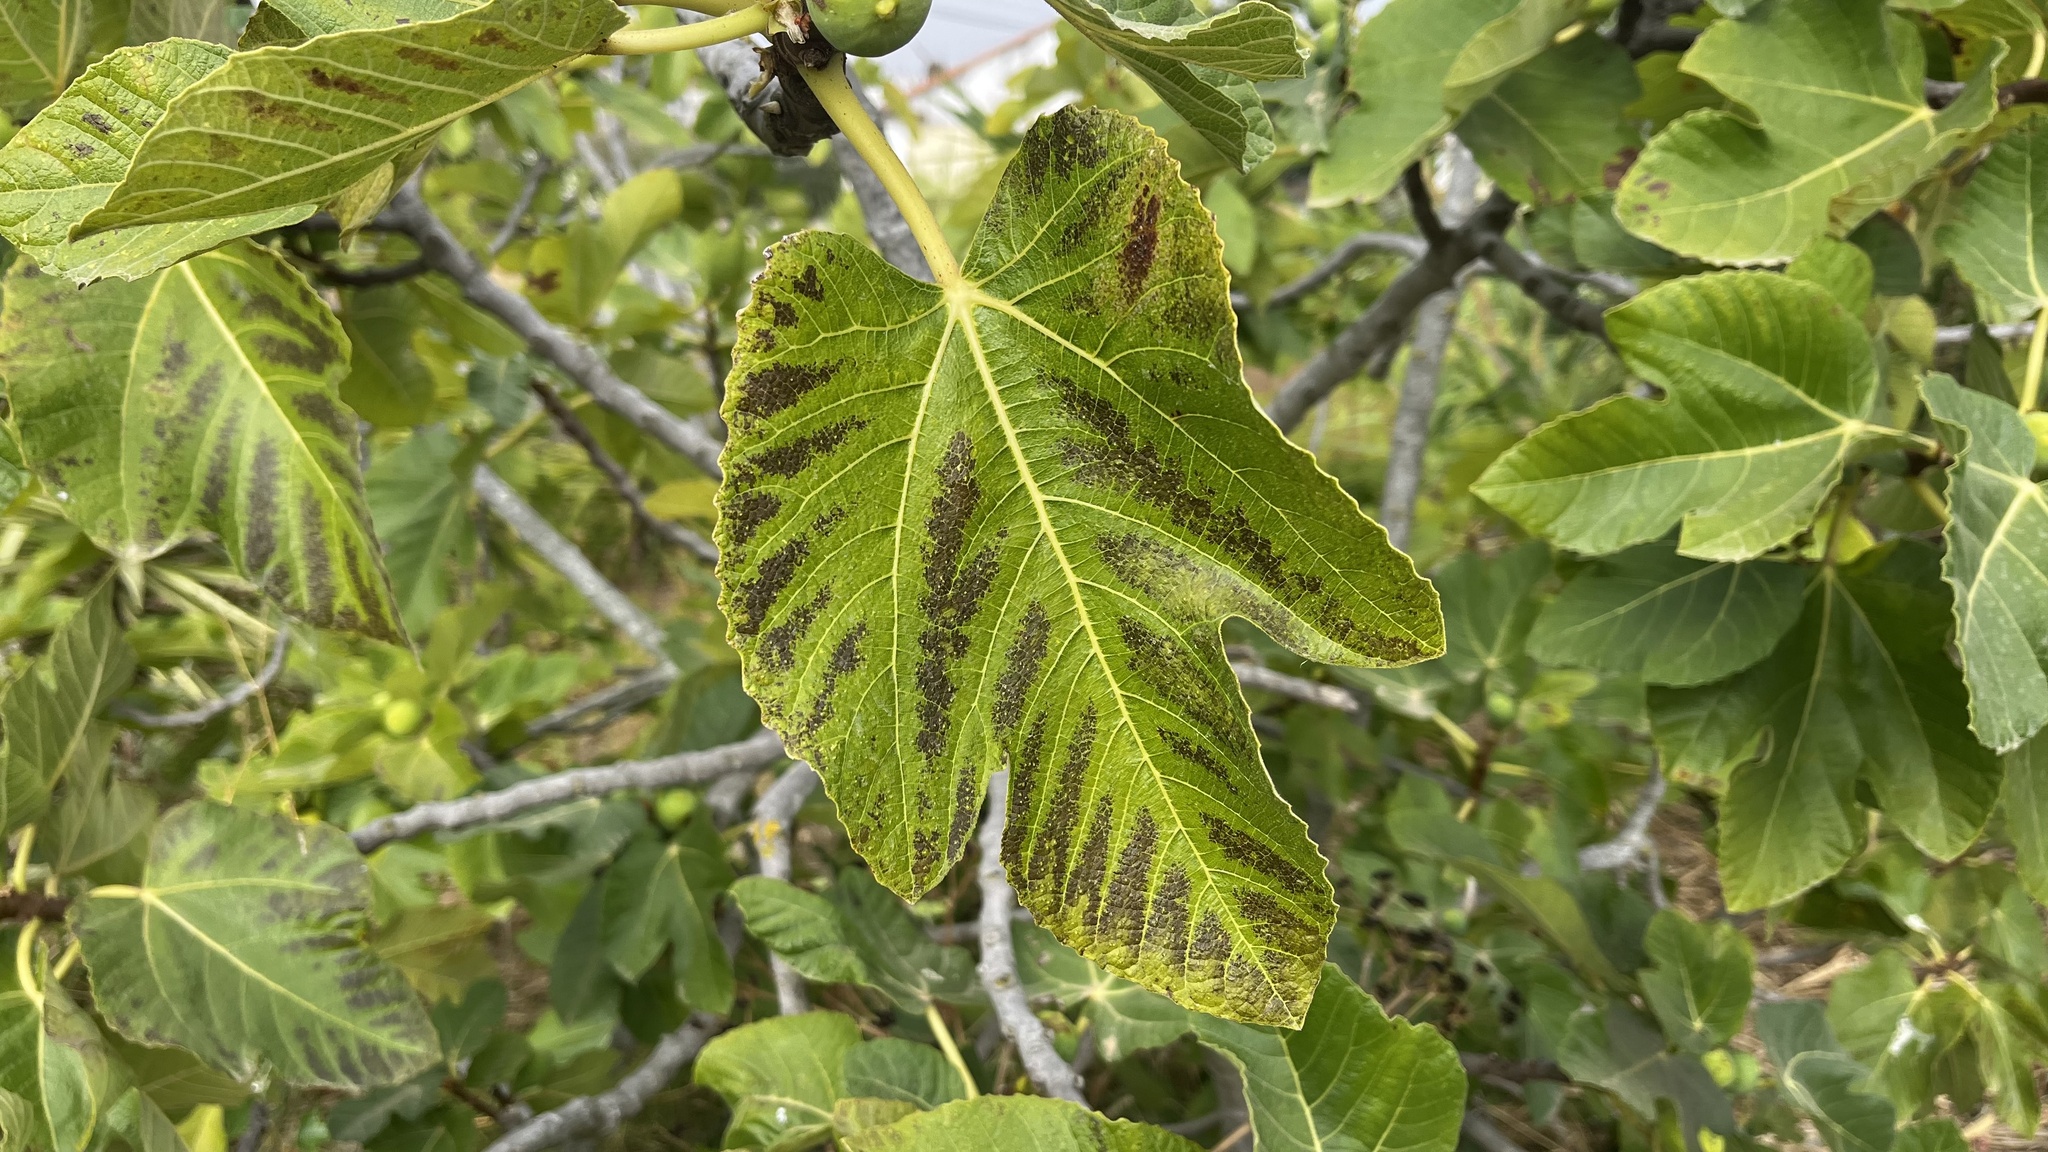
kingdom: Plantae
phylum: Tracheophyta
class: Magnoliopsida
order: Rosales
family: Moraceae
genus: Ficus
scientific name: Ficus carica
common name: Fig
